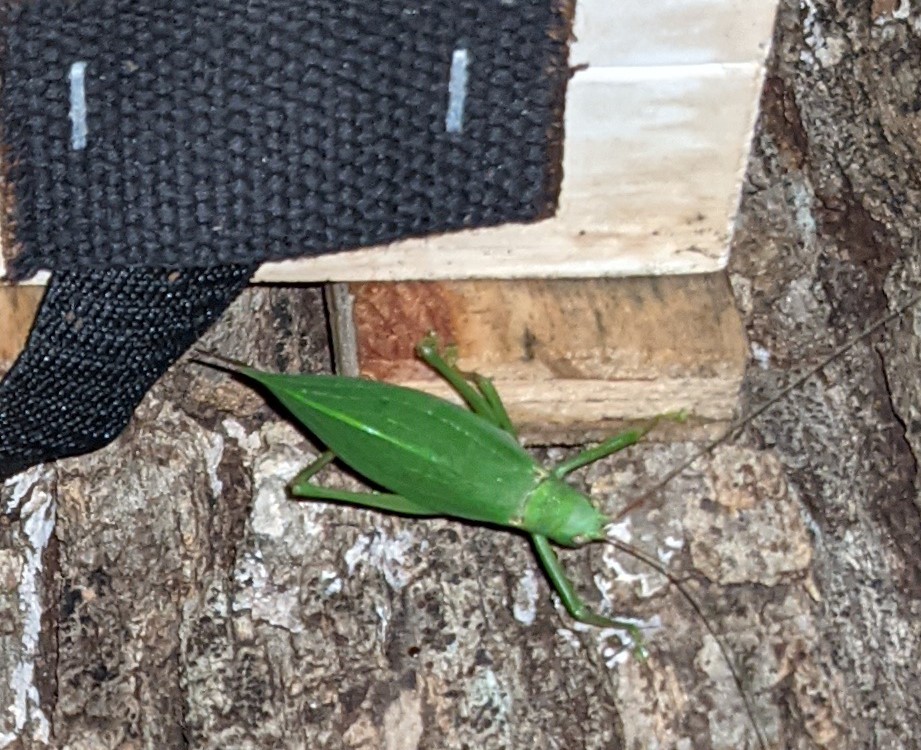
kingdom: Animalia
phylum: Arthropoda
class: Insecta
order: Orthoptera
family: Tettigoniidae
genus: Pterophylla
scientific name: Pterophylla camellifolia
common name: Common true katydid
